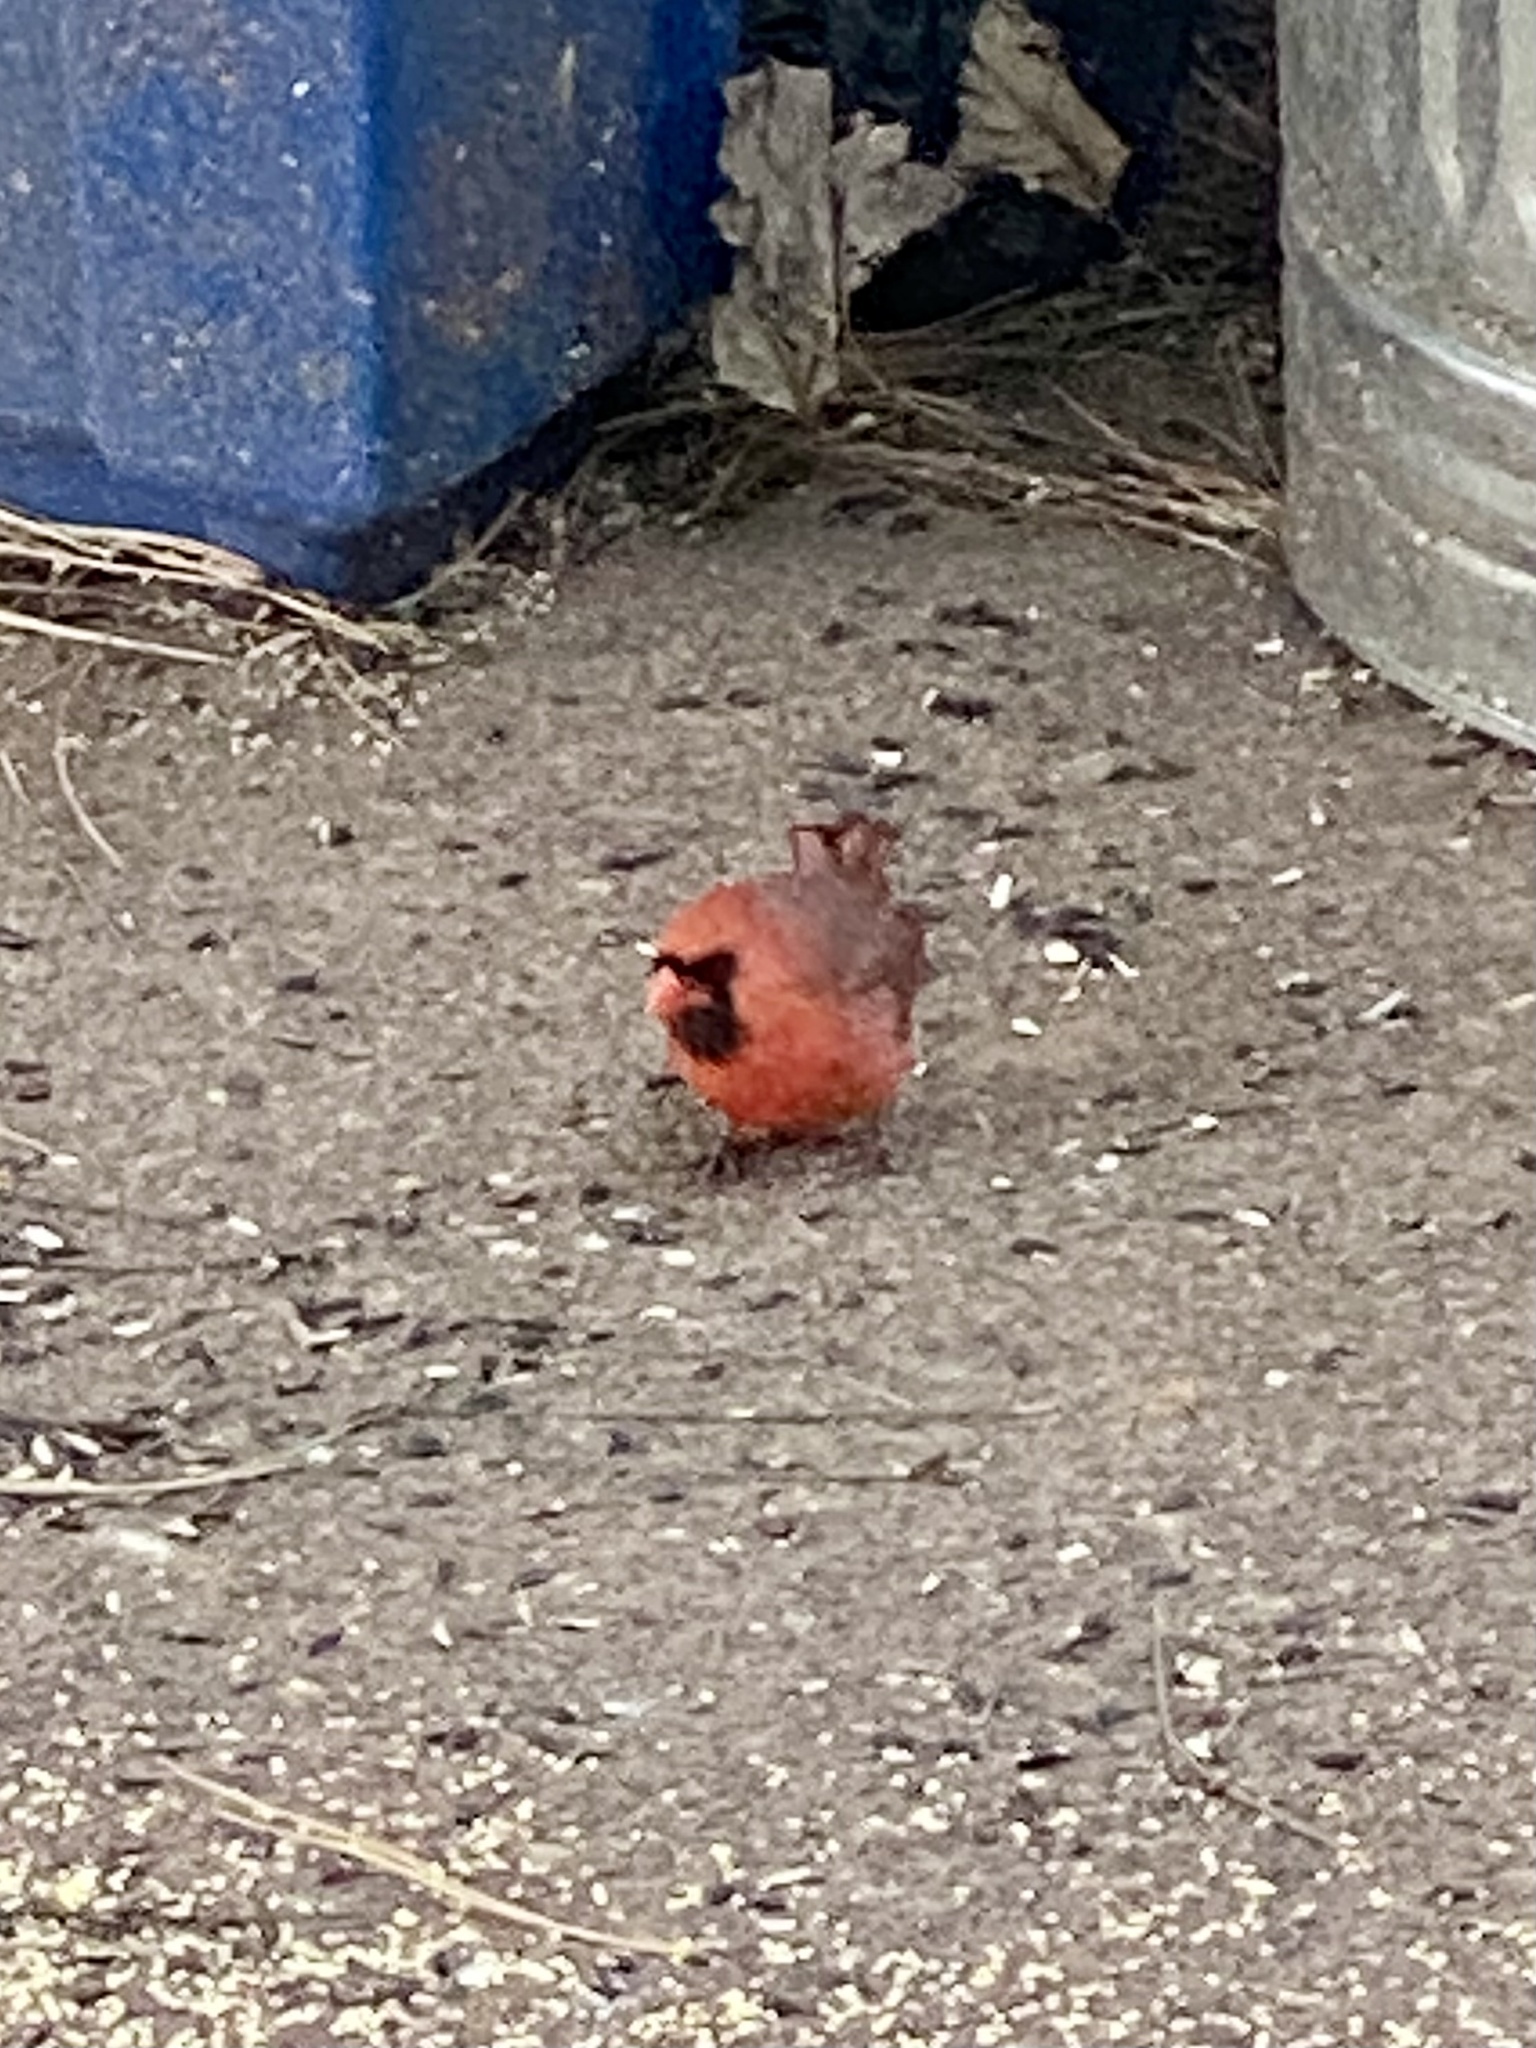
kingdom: Animalia
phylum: Chordata
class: Aves
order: Passeriformes
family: Cardinalidae
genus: Cardinalis
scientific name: Cardinalis cardinalis
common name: Northern cardinal
